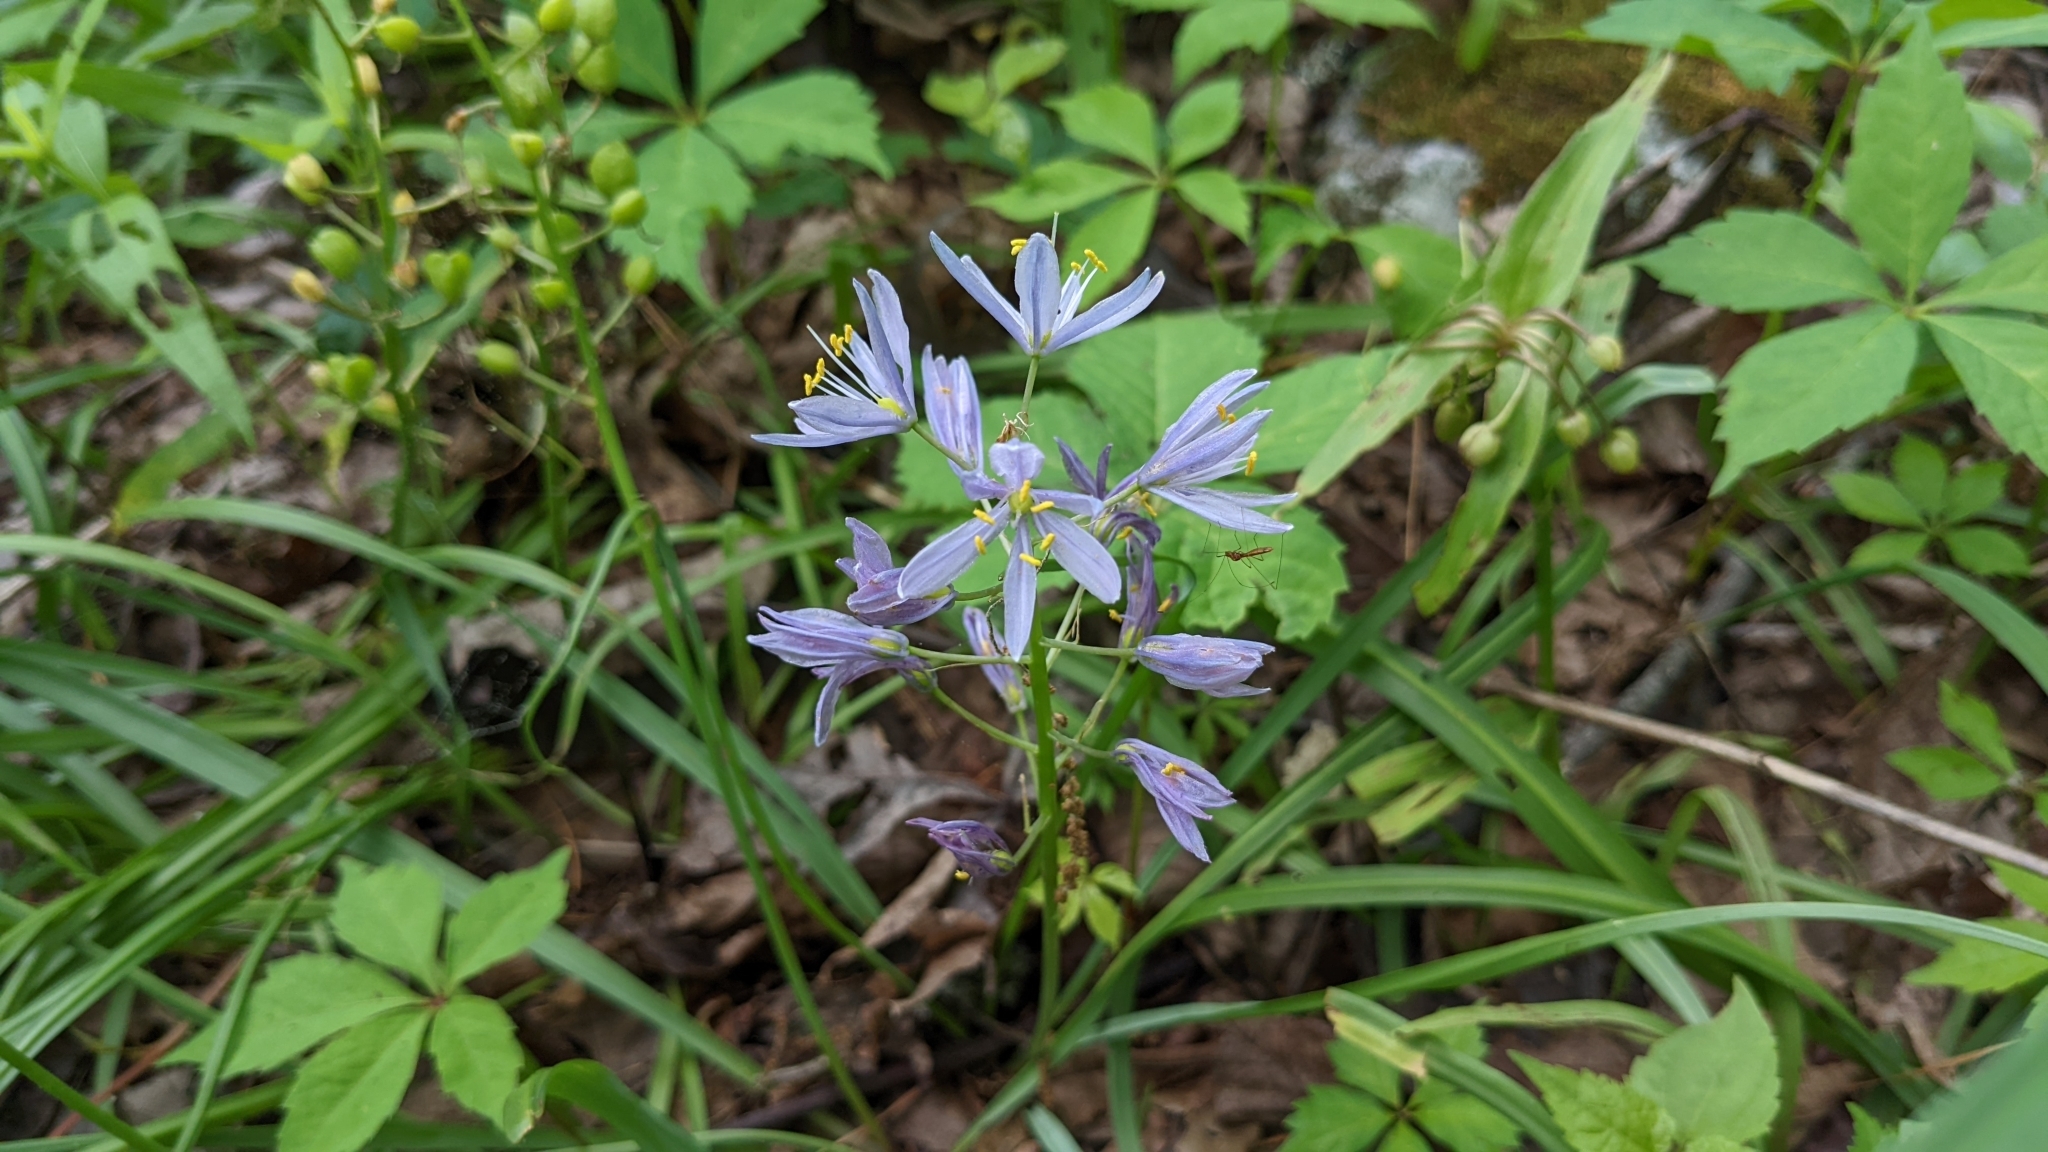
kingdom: Plantae
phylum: Tracheophyta
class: Liliopsida
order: Asparagales
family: Asparagaceae
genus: Camassia
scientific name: Camassia scilloides
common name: Wild hyacinth
